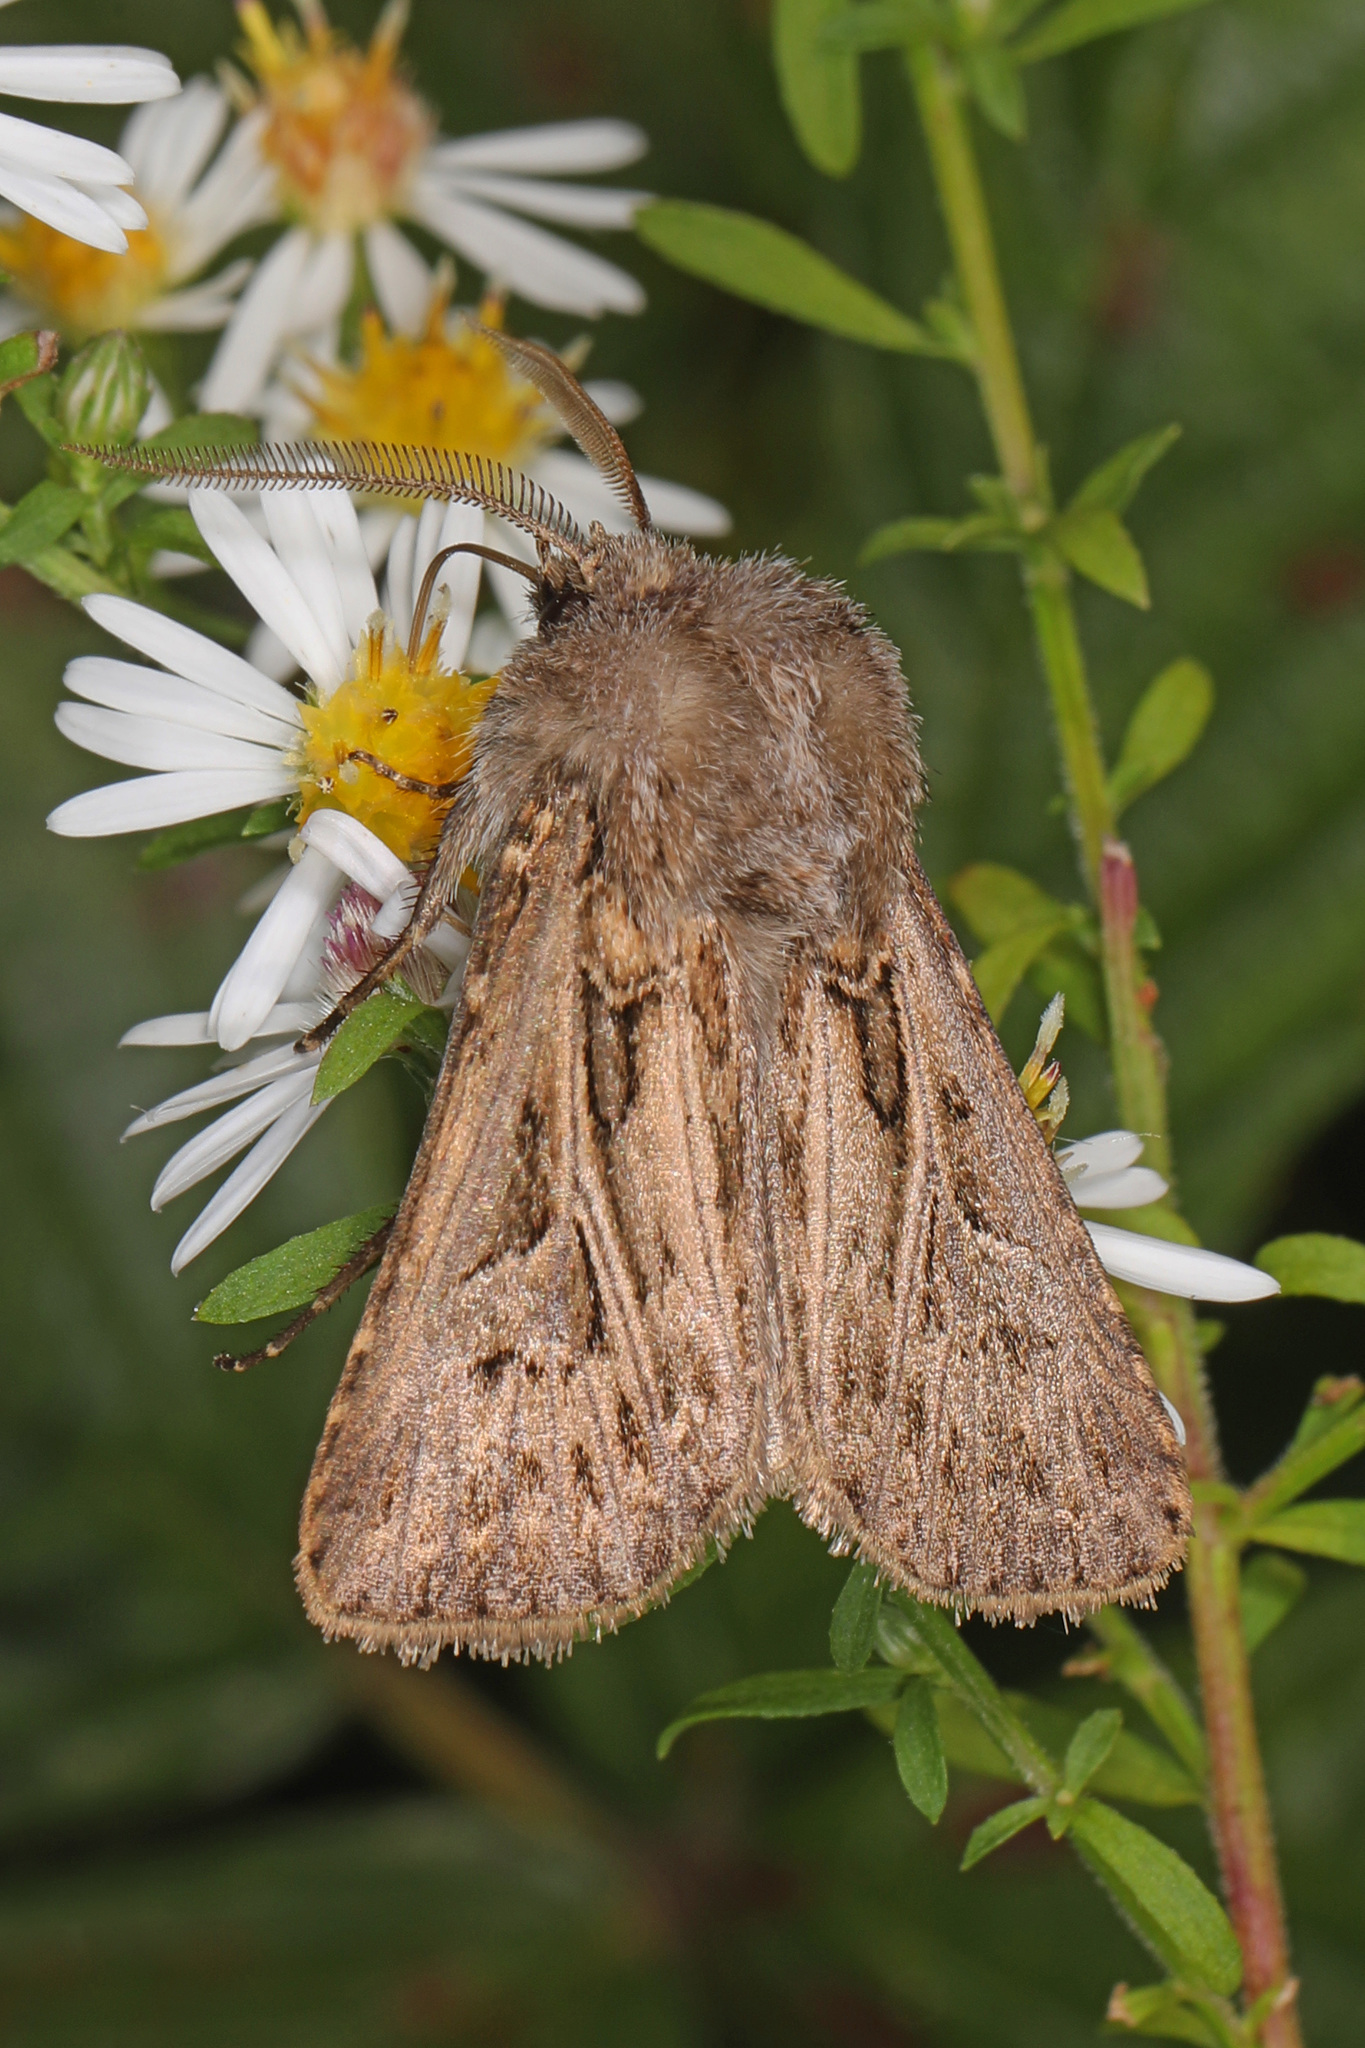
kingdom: Animalia
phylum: Arthropoda
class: Insecta
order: Lepidoptera
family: Noctuidae
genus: Agrotis
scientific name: Agrotis gladiaria
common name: Claybacked cutworm
